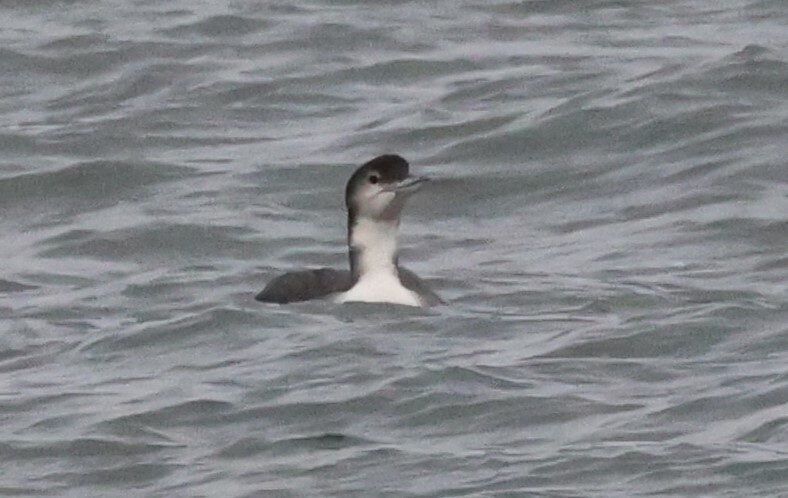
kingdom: Animalia
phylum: Chordata
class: Aves
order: Gaviiformes
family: Gaviidae
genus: Gavia
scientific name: Gavia immer
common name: Common loon
